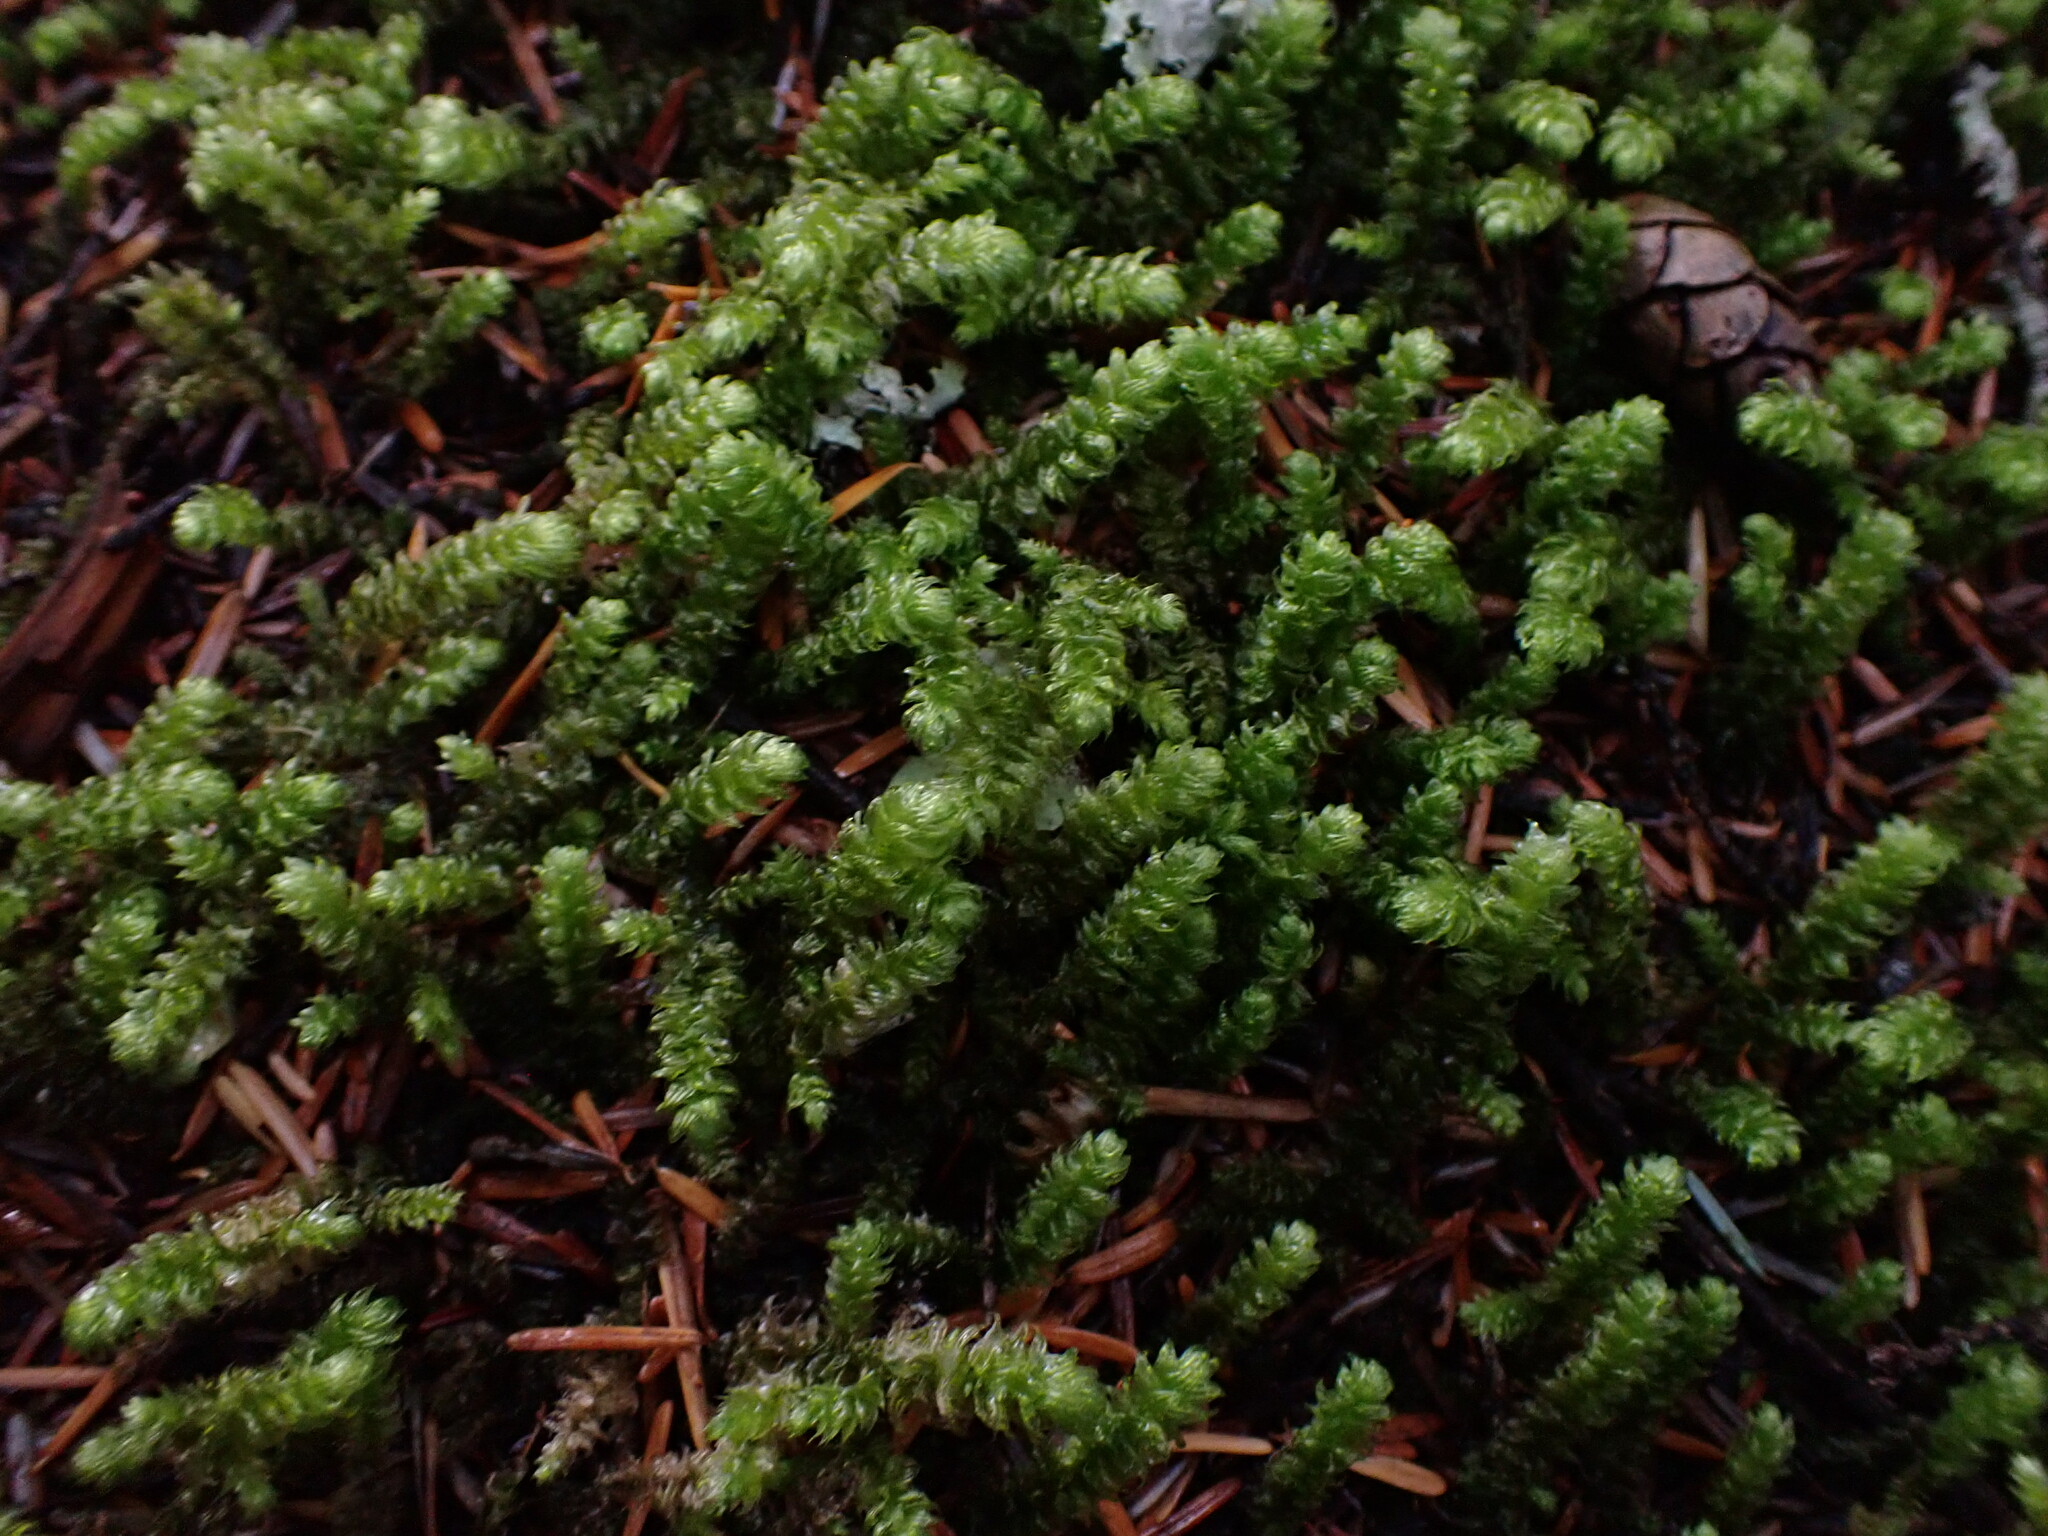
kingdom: Plantae
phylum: Bryophyta
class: Bryopsida
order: Hypnales
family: Hylocomiaceae
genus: Rhytidiopsis
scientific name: Rhytidiopsis robusta
